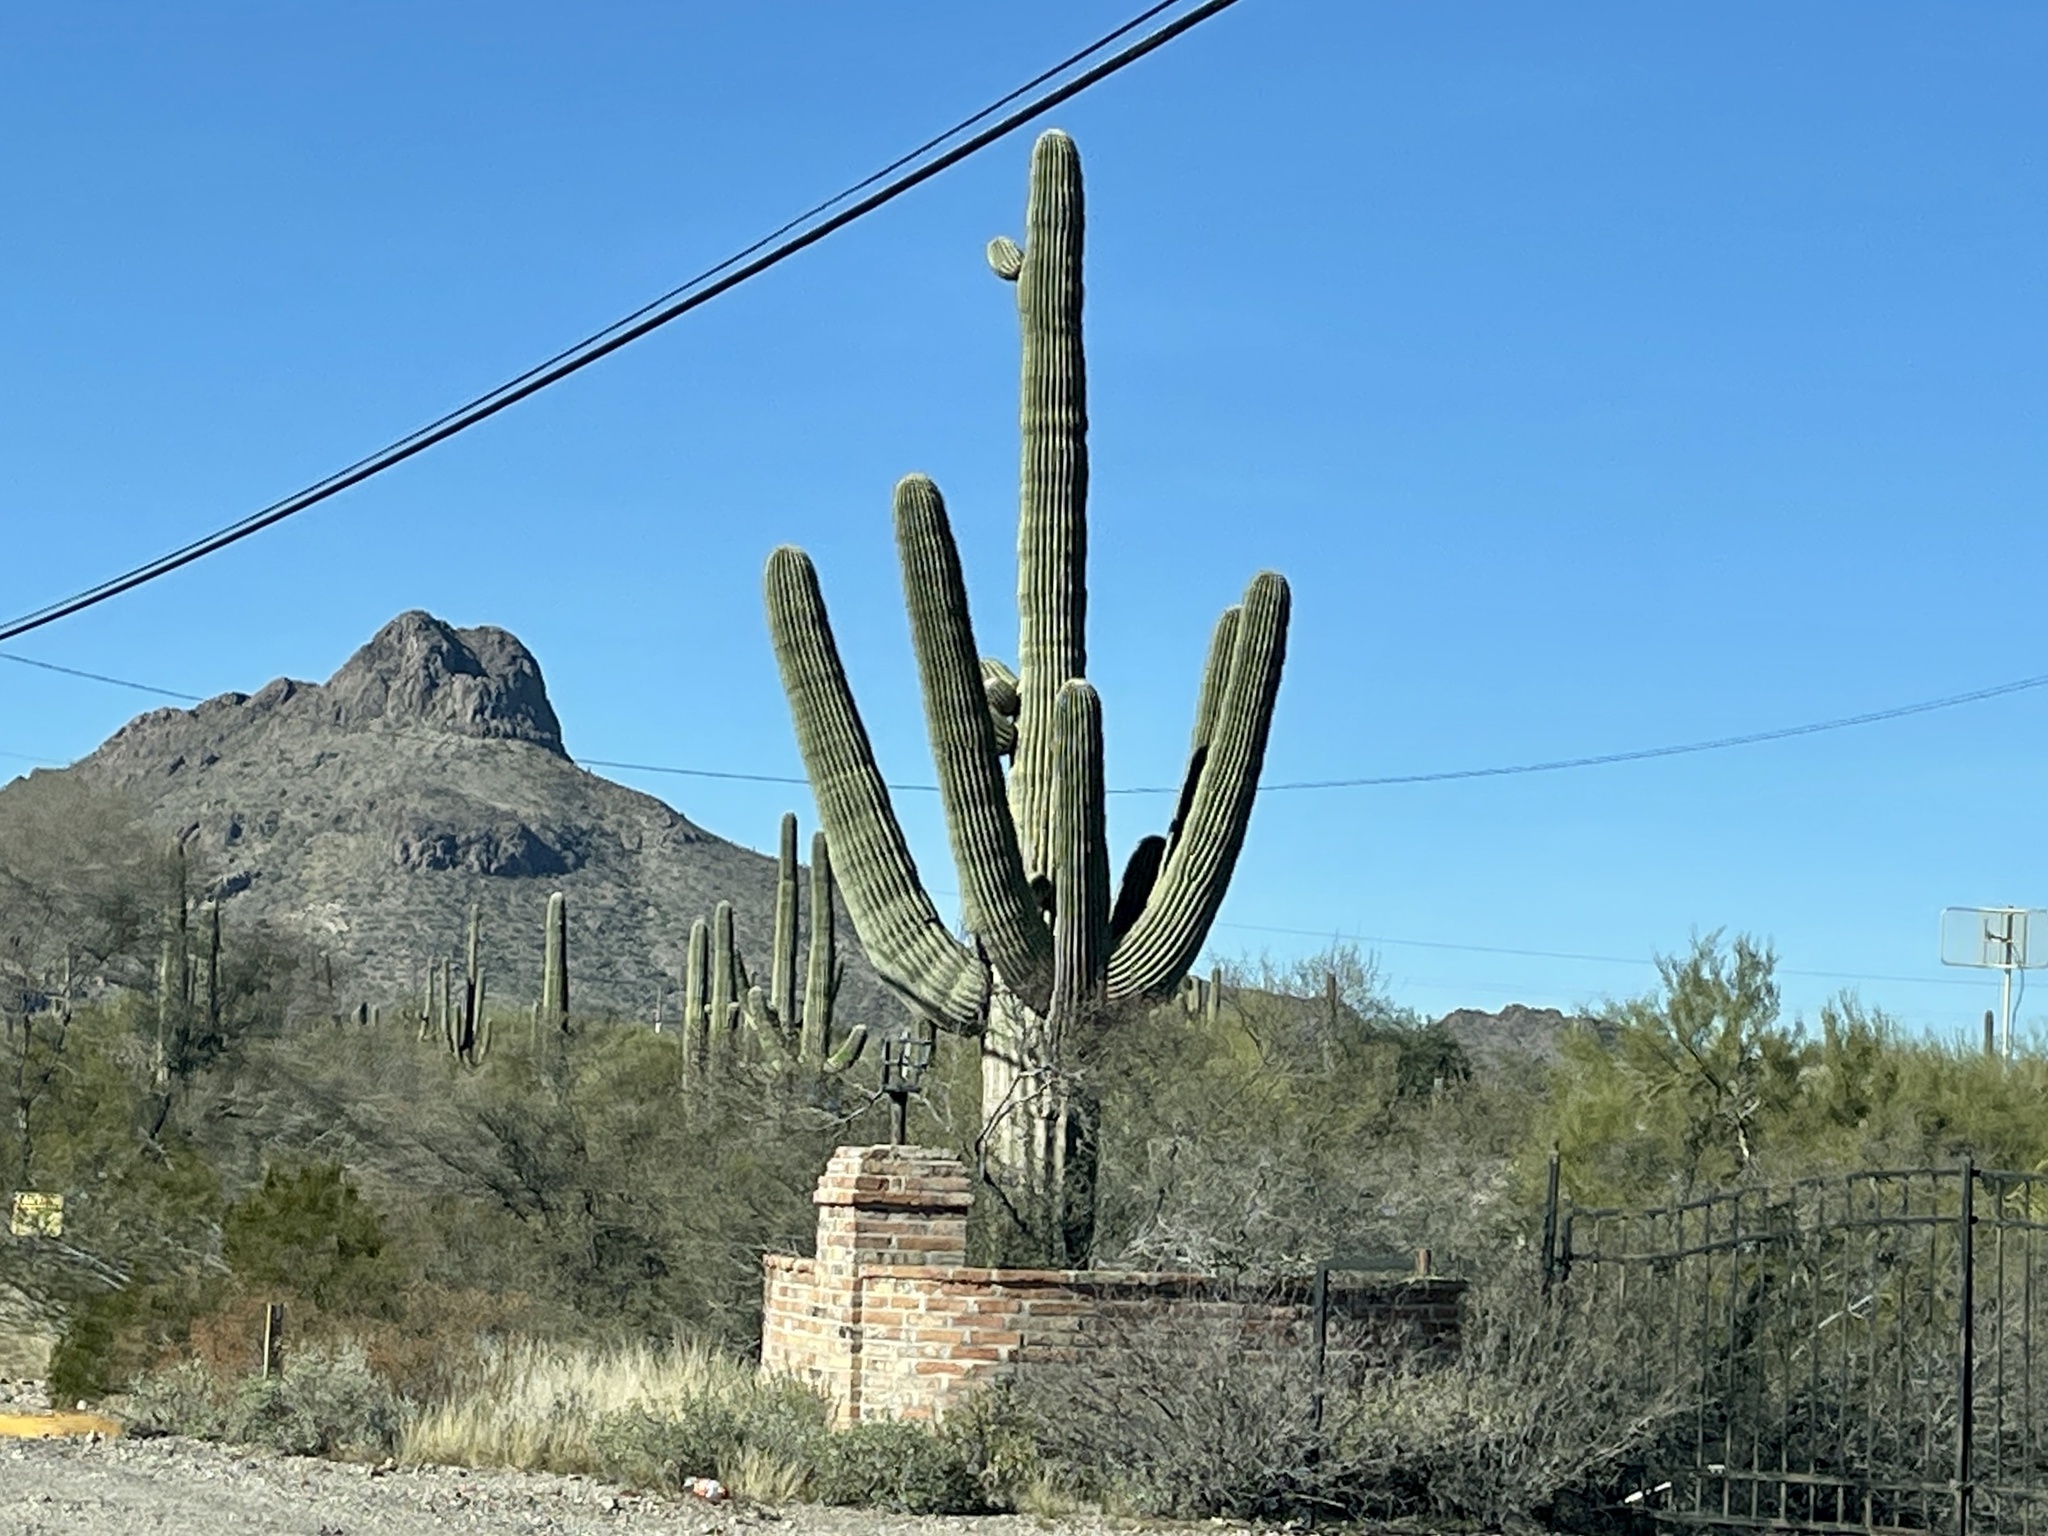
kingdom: Plantae
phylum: Tracheophyta
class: Magnoliopsida
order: Caryophyllales
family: Cactaceae
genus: Carnegiea
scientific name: Carnegiea gigantea
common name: Saguaro
